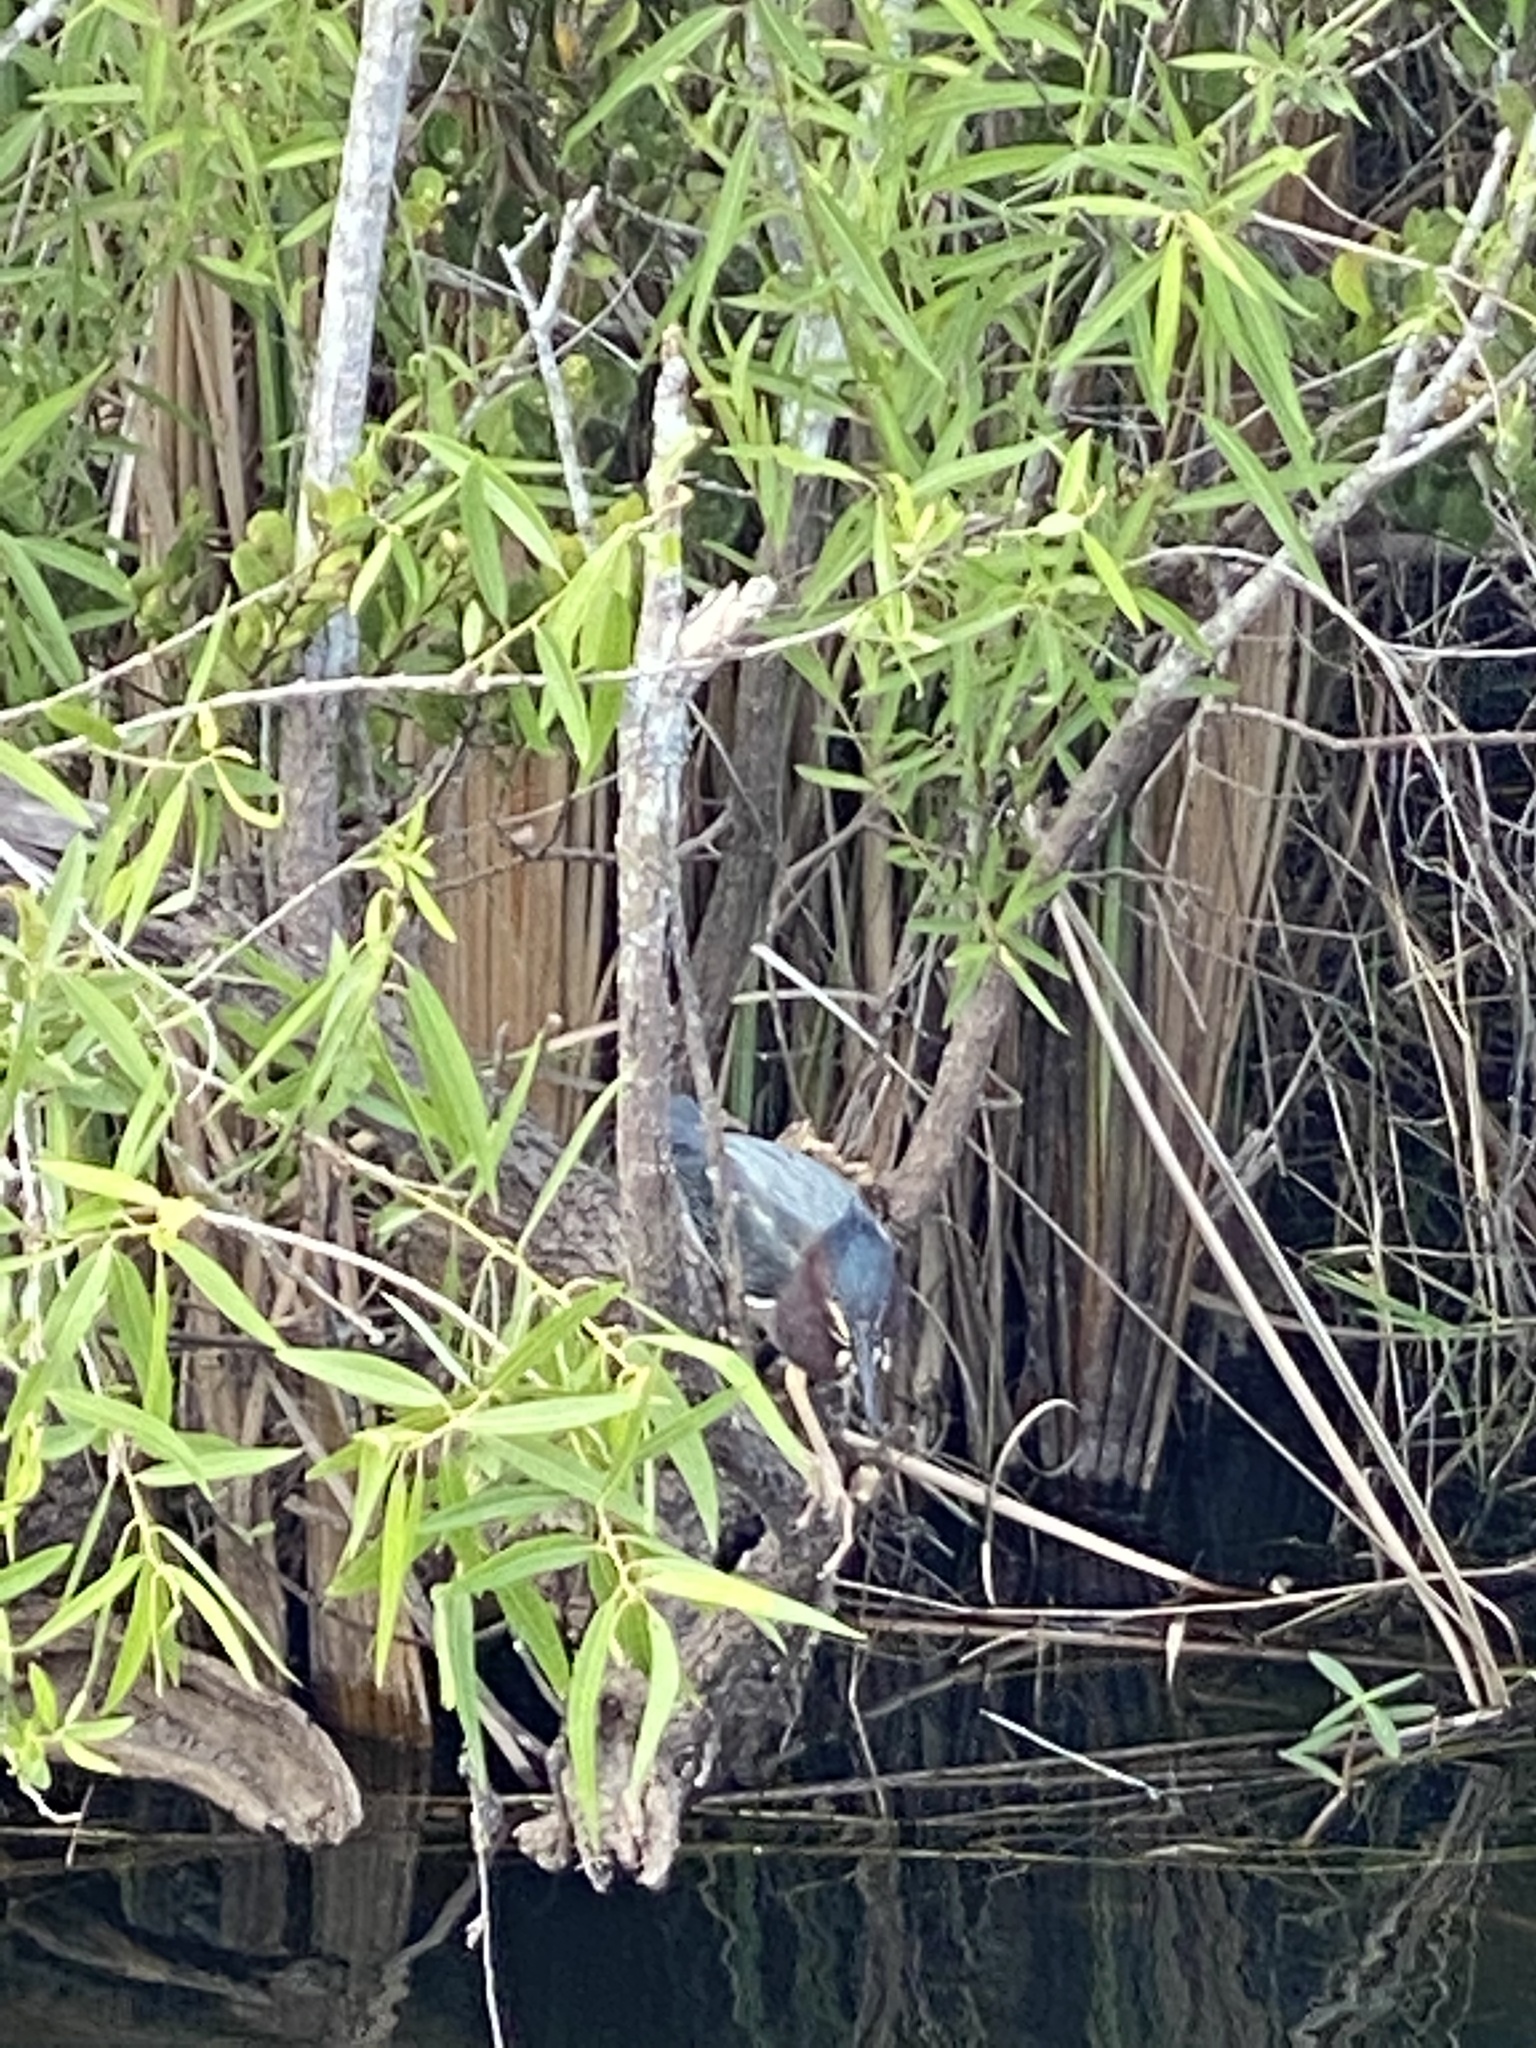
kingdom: Animalia
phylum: Chordata
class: Aves
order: Pelecaniformes
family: Ardeidae
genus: Butorides
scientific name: Butorides virescens
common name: Green heron
